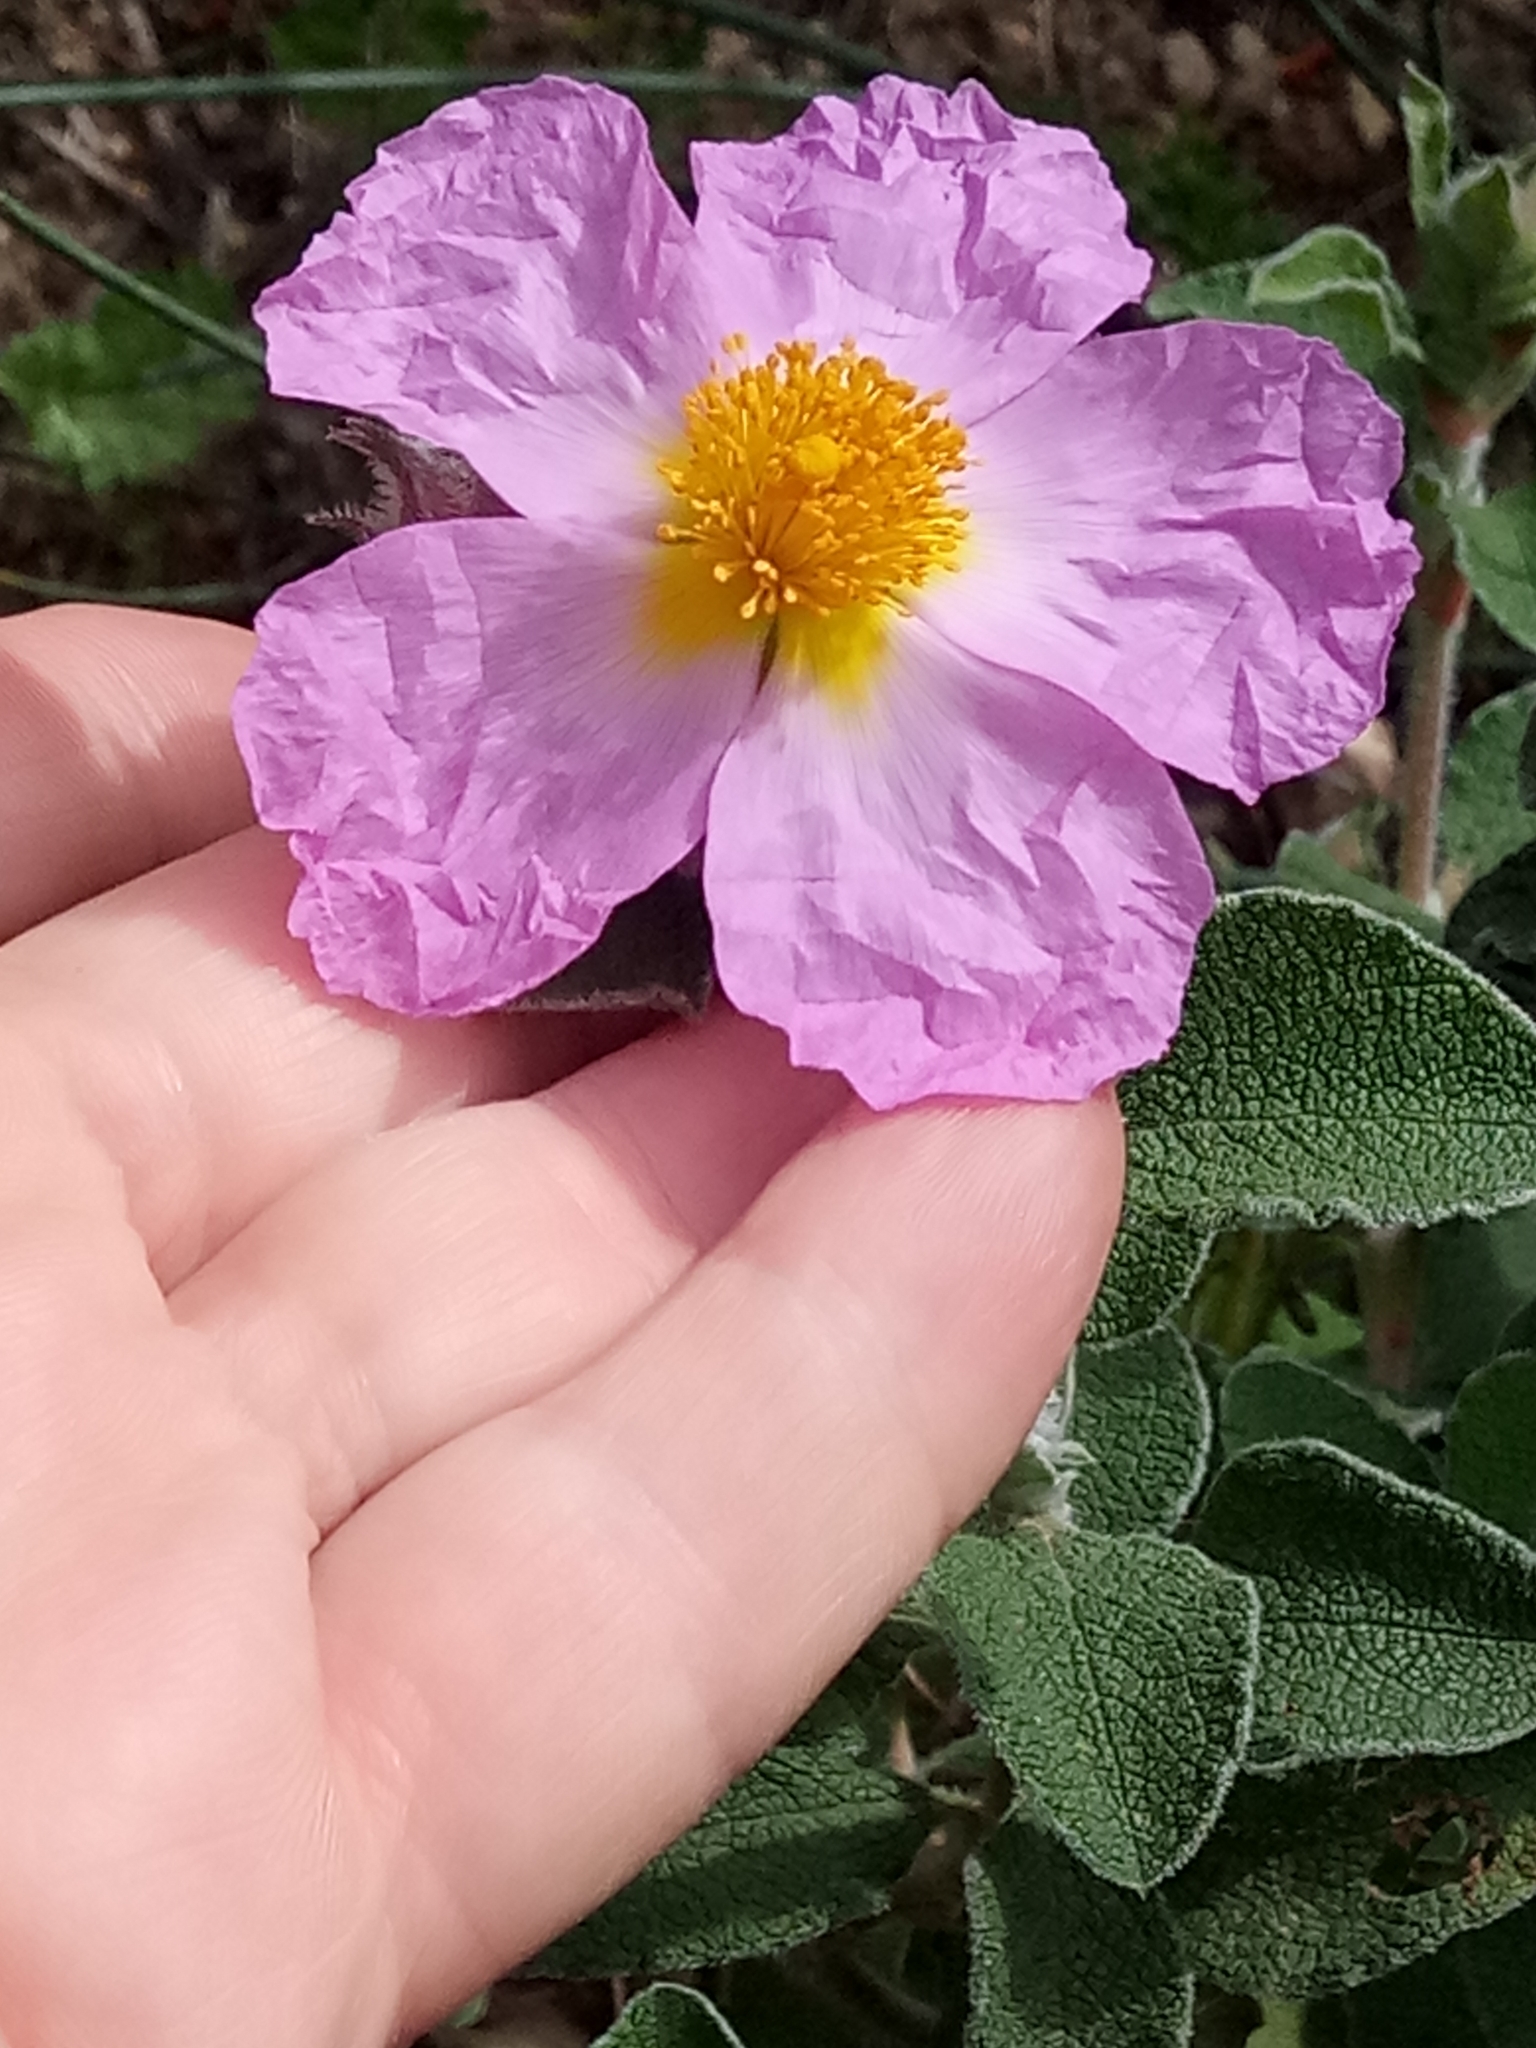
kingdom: Plantae
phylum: Tracheophyta
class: Magnoliopsida
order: Malvales
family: Cistaceae
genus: Cistus
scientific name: Cistus creticus
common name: Cretan rockrose
